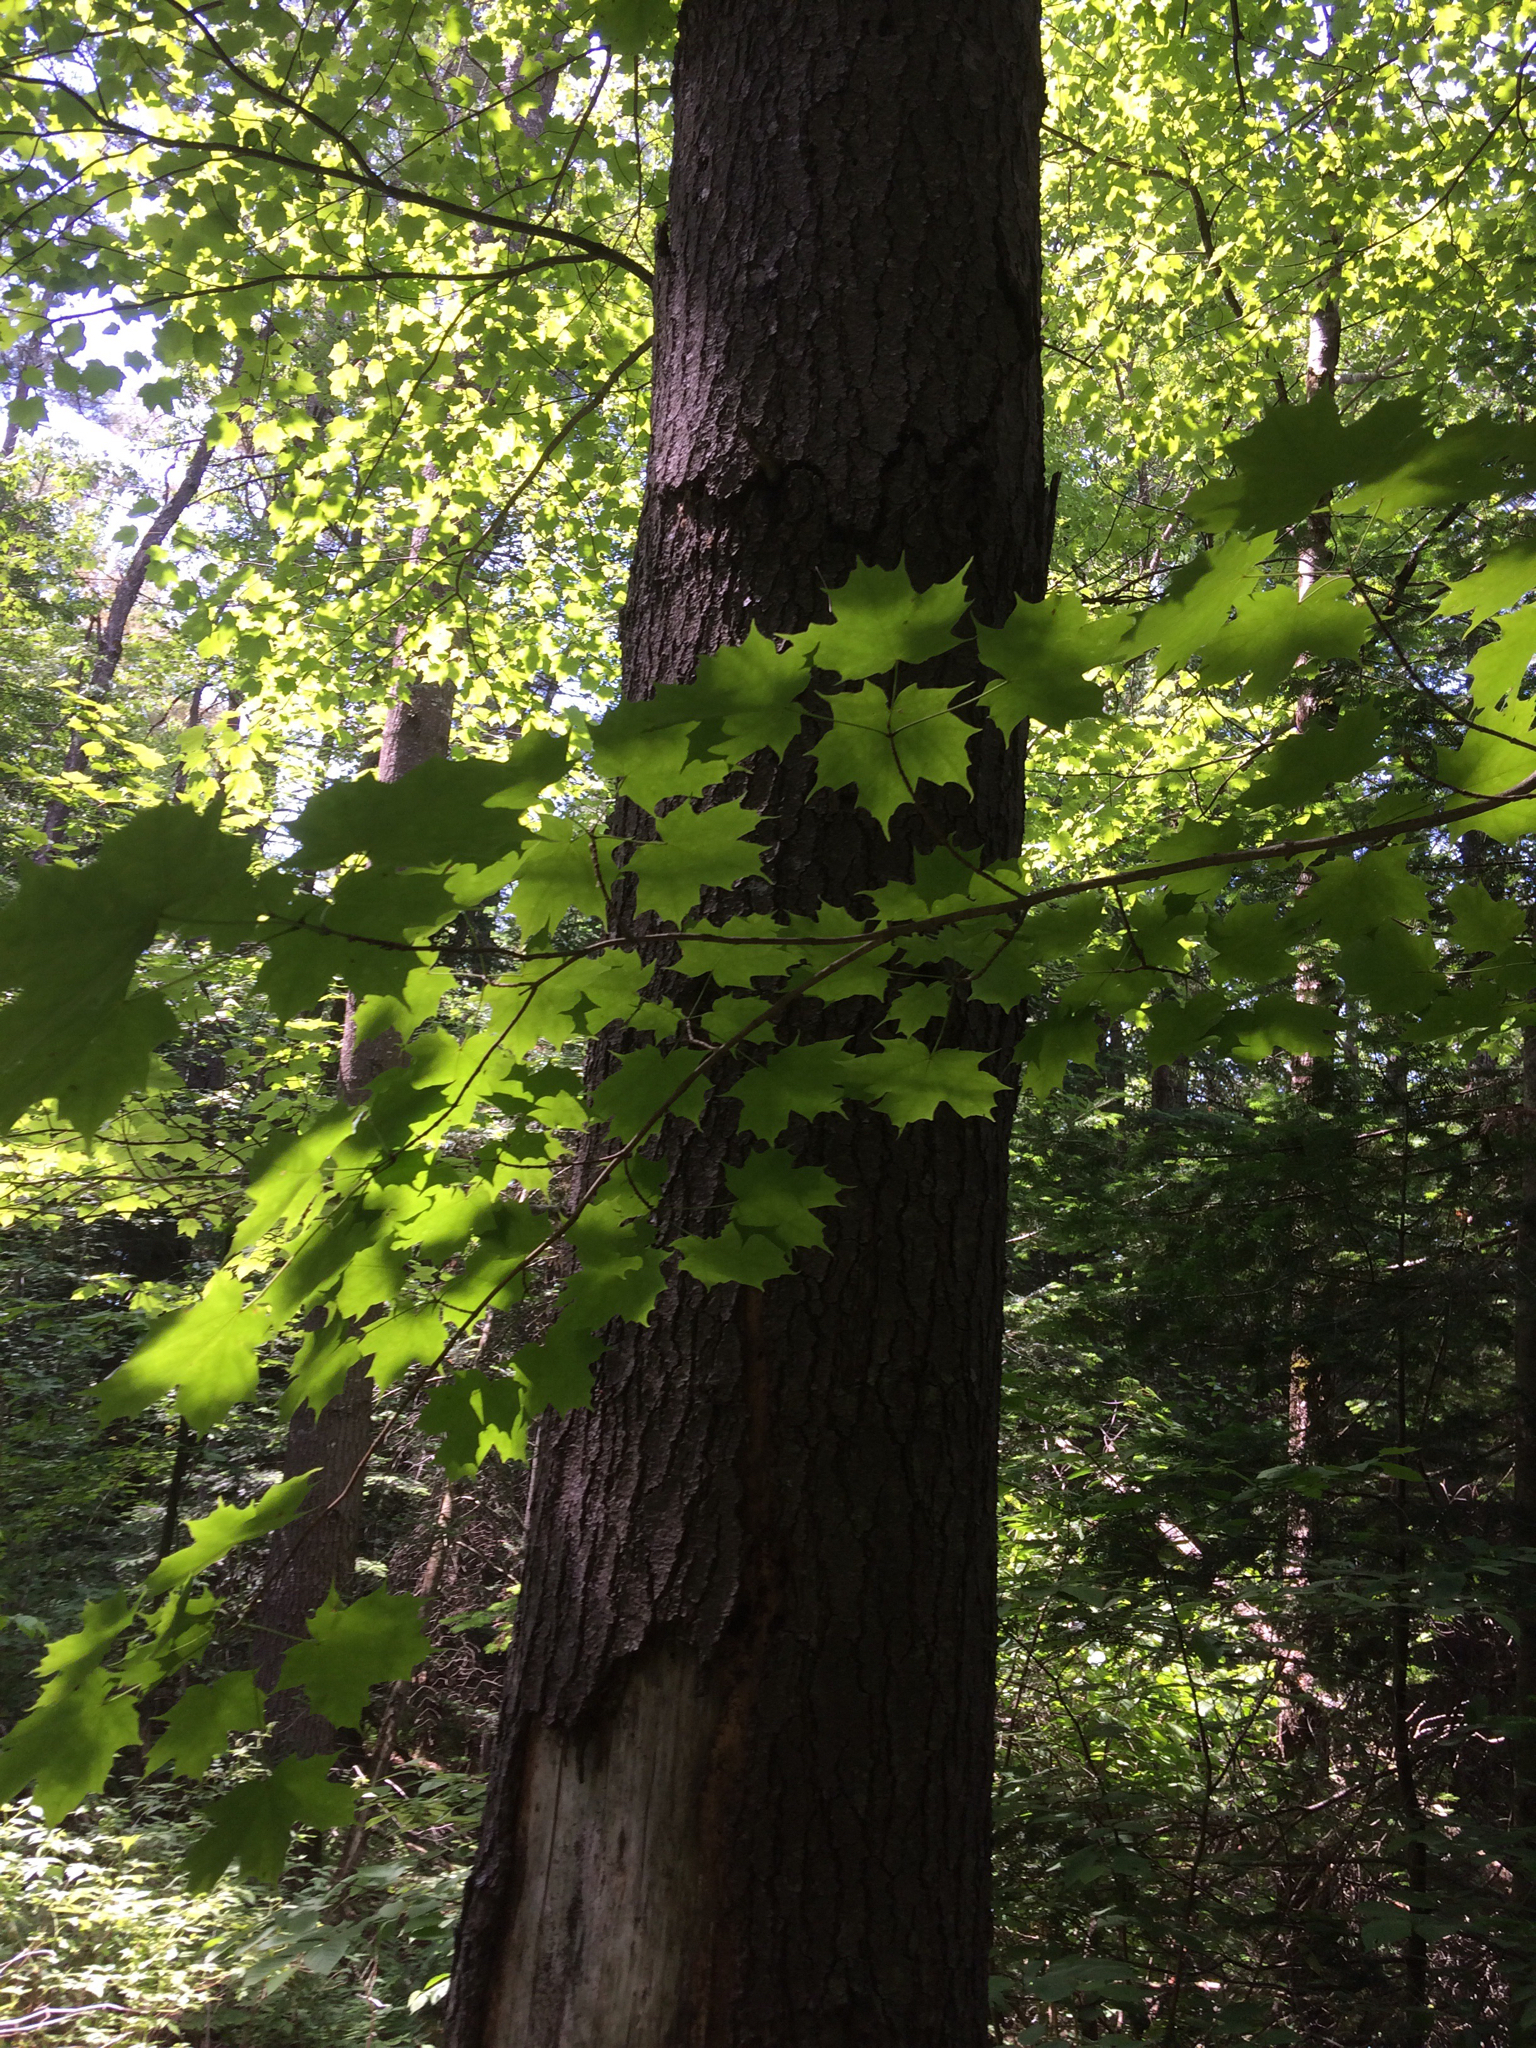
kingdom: Plantae
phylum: Tracheophyta
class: Magnoliopsida
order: Sapindales
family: Sapindaceae
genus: Acer
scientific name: Acer saccharum
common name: Sugar maple
